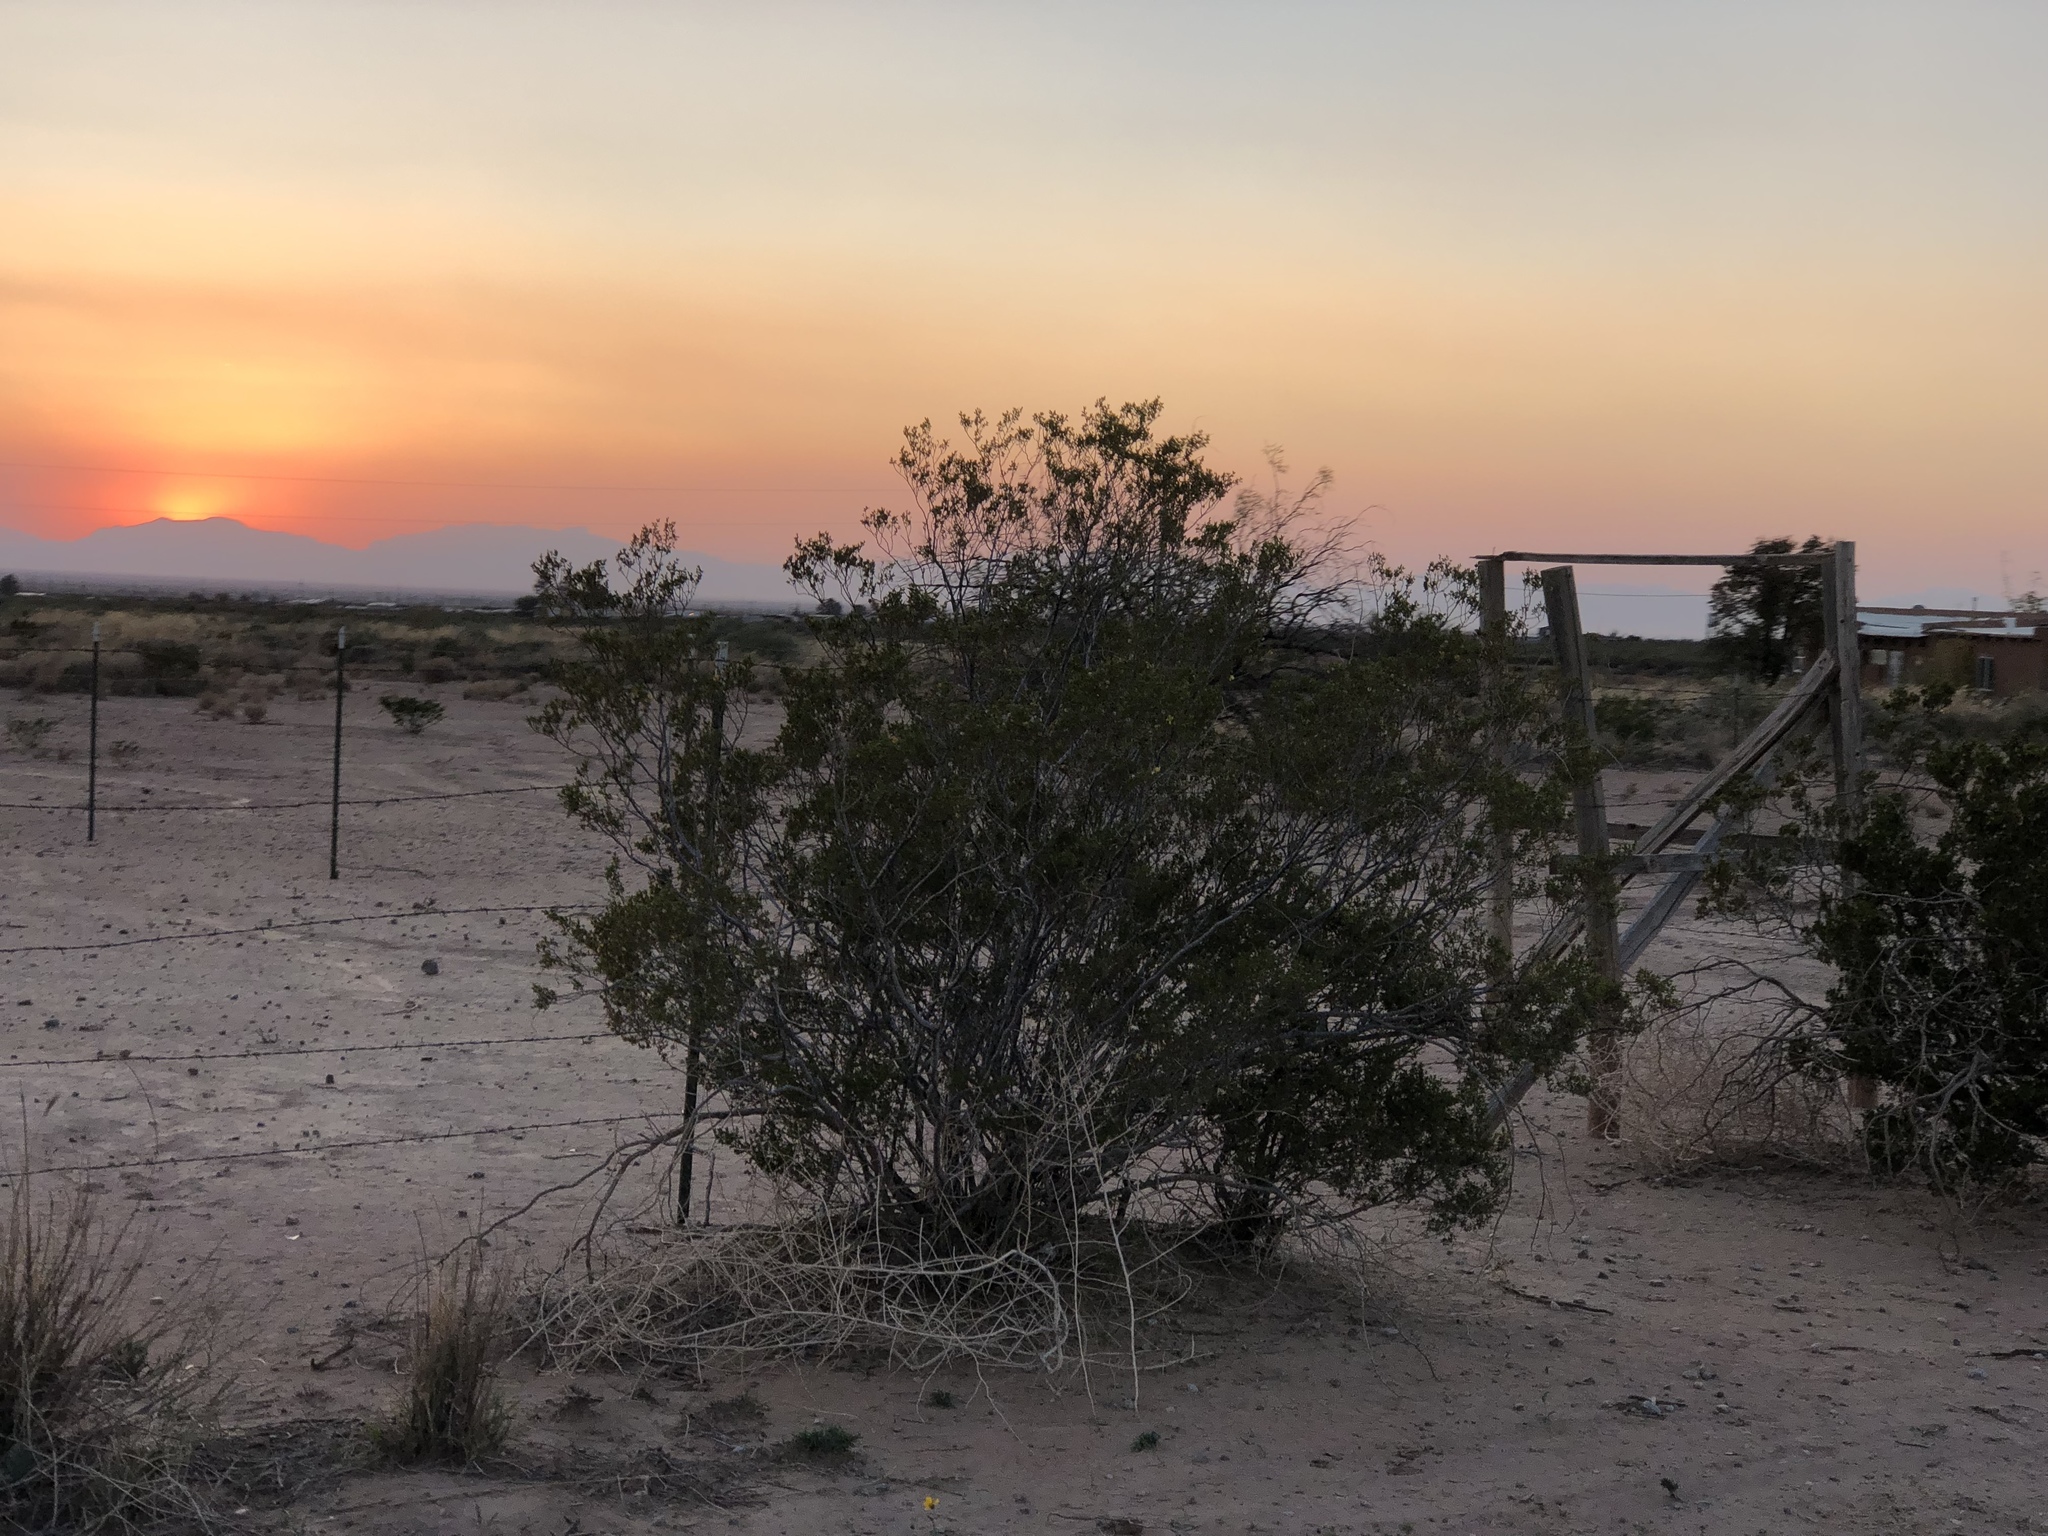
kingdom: Plantae
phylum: Tracheophyta
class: Magnoliopsida
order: Zygophyllales
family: Zygophyllaceae
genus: Larrea
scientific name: Larrea tridentata
